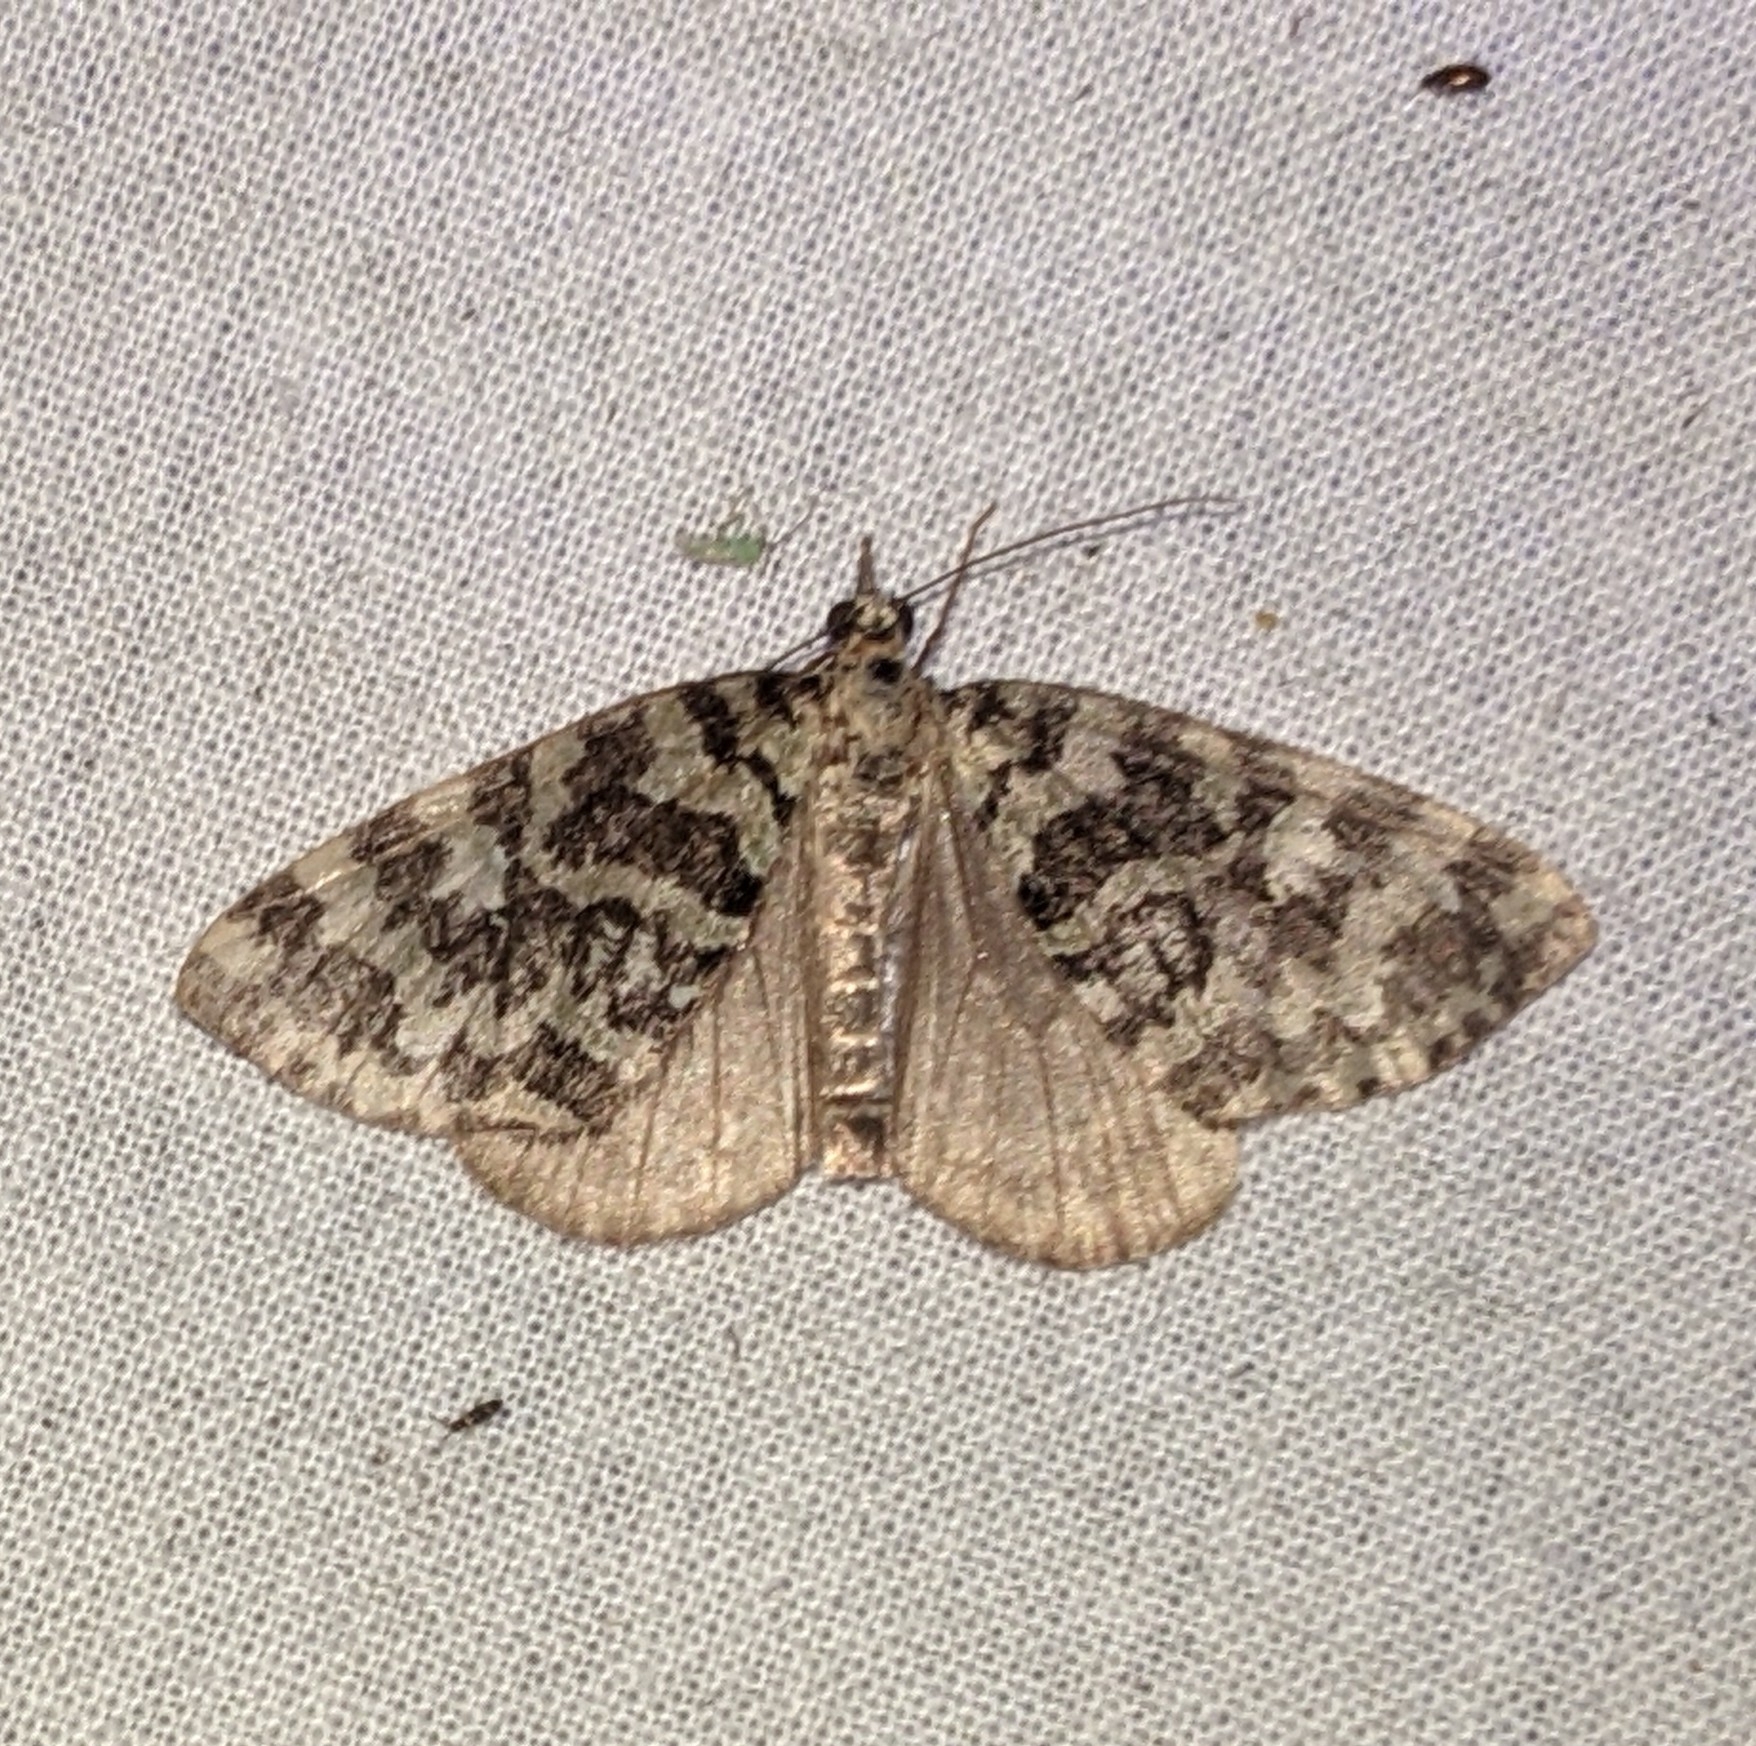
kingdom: Animalia
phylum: Arthropoda
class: Insecta
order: Lepidoptera
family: Geometridae
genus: Hydriomena
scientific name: Hydriomena speciosata
